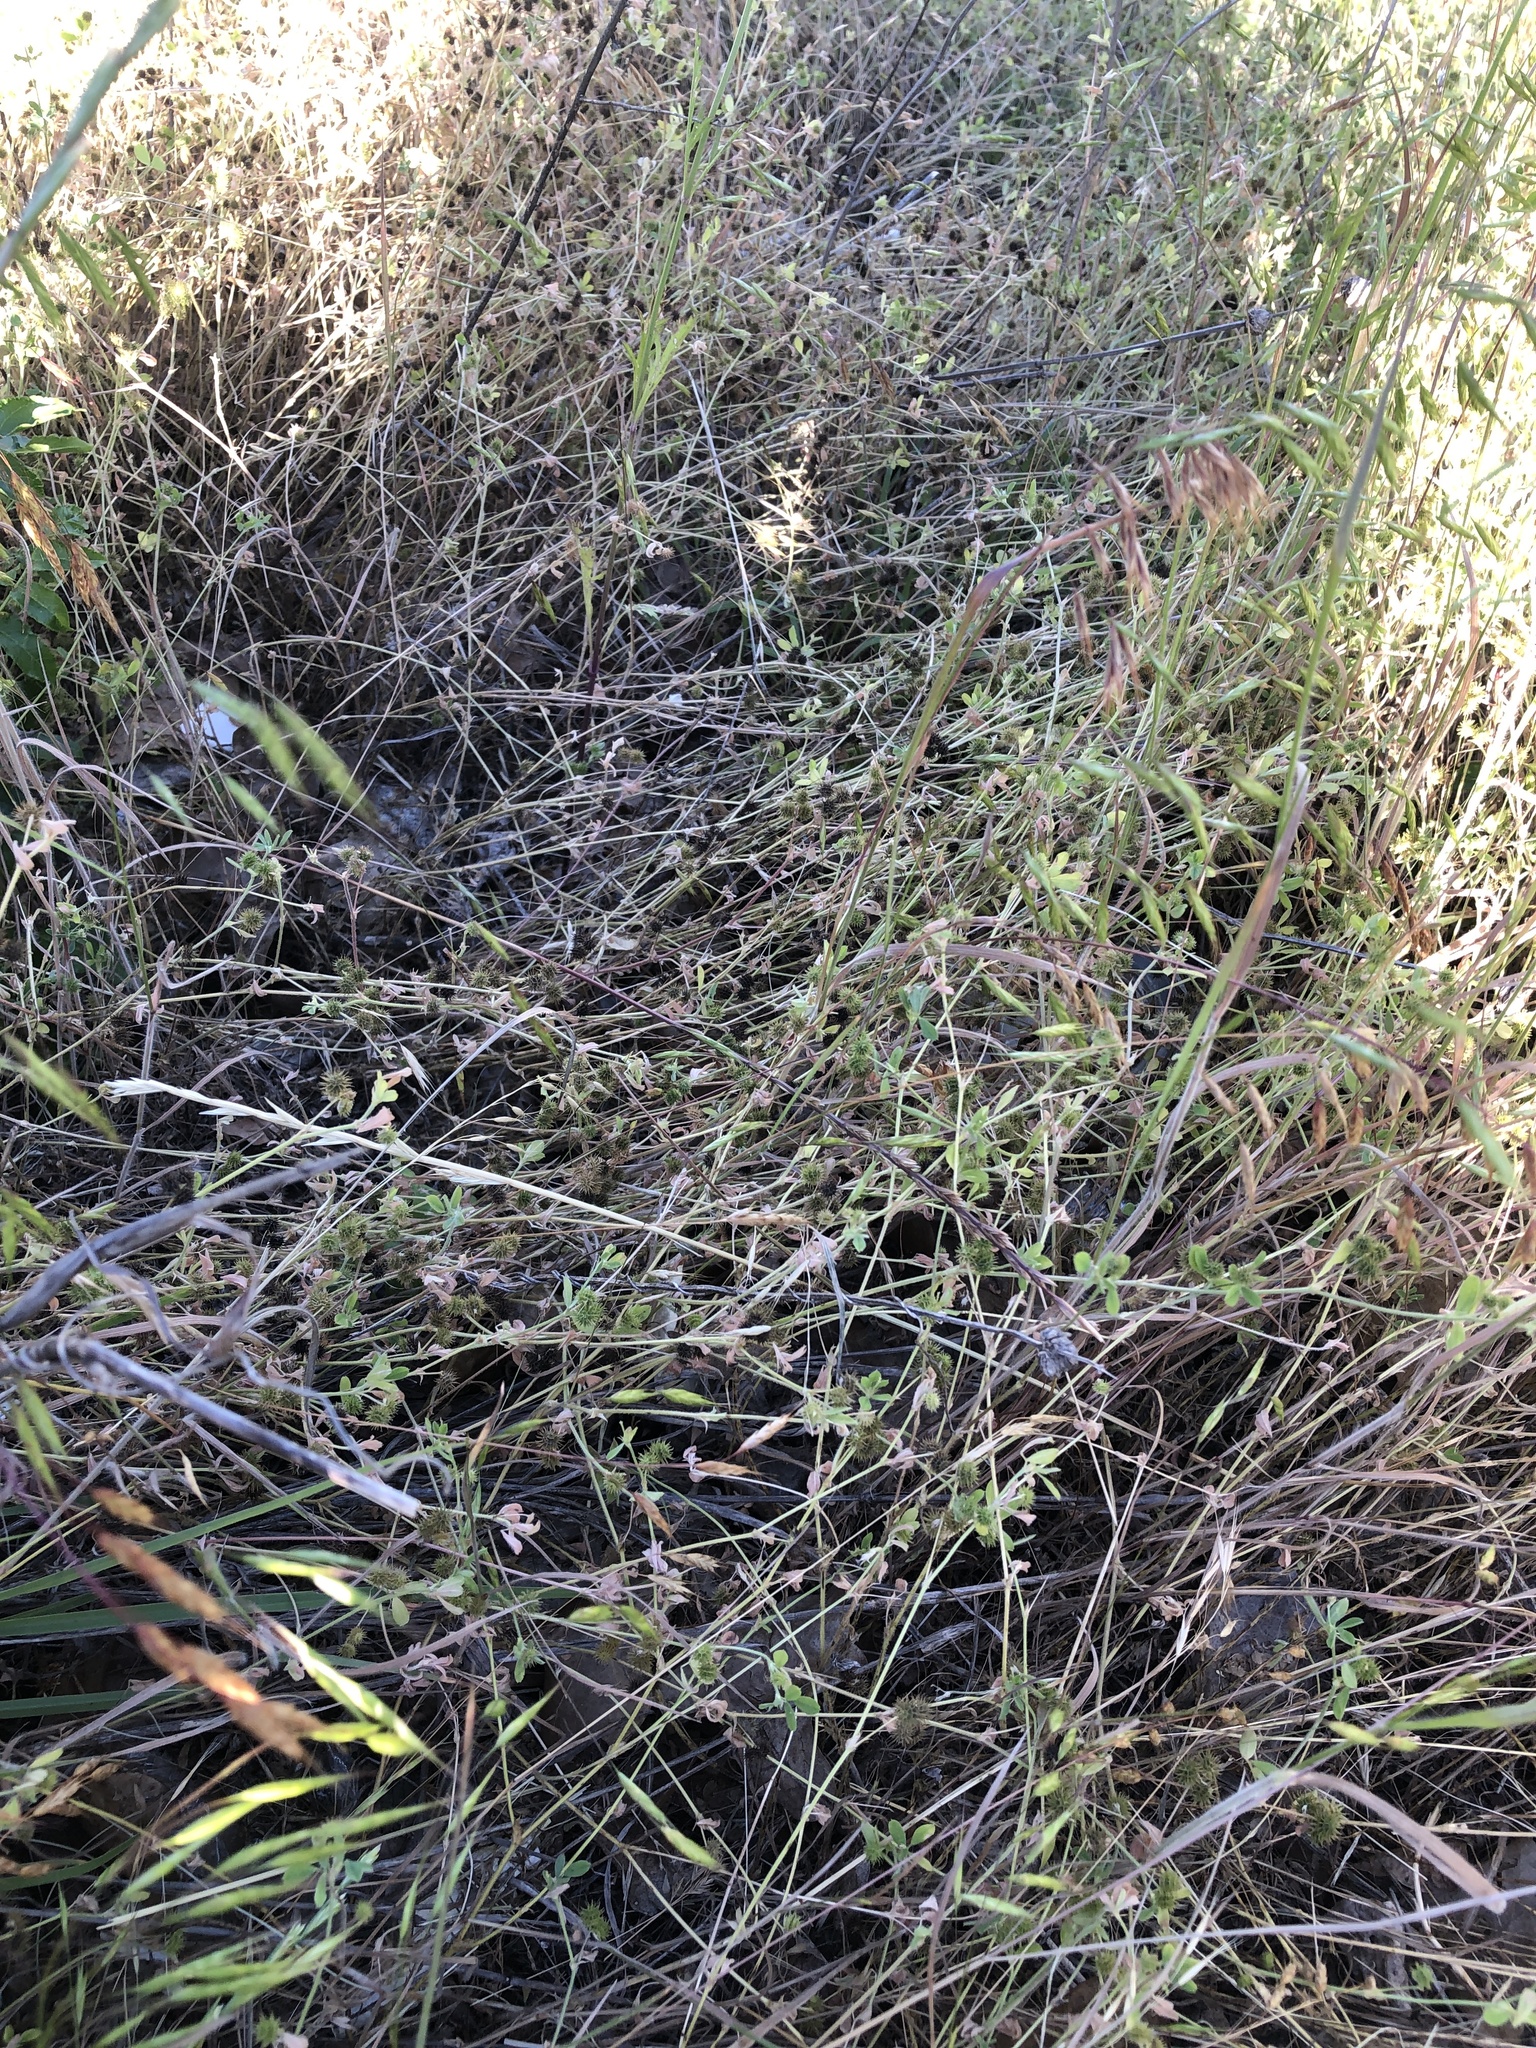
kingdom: Plantae
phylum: Tracheophyta
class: Magnoliopsida
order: Fabales
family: Fabaceae
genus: Medicago
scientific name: Medicago minima
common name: Little bur-clover
